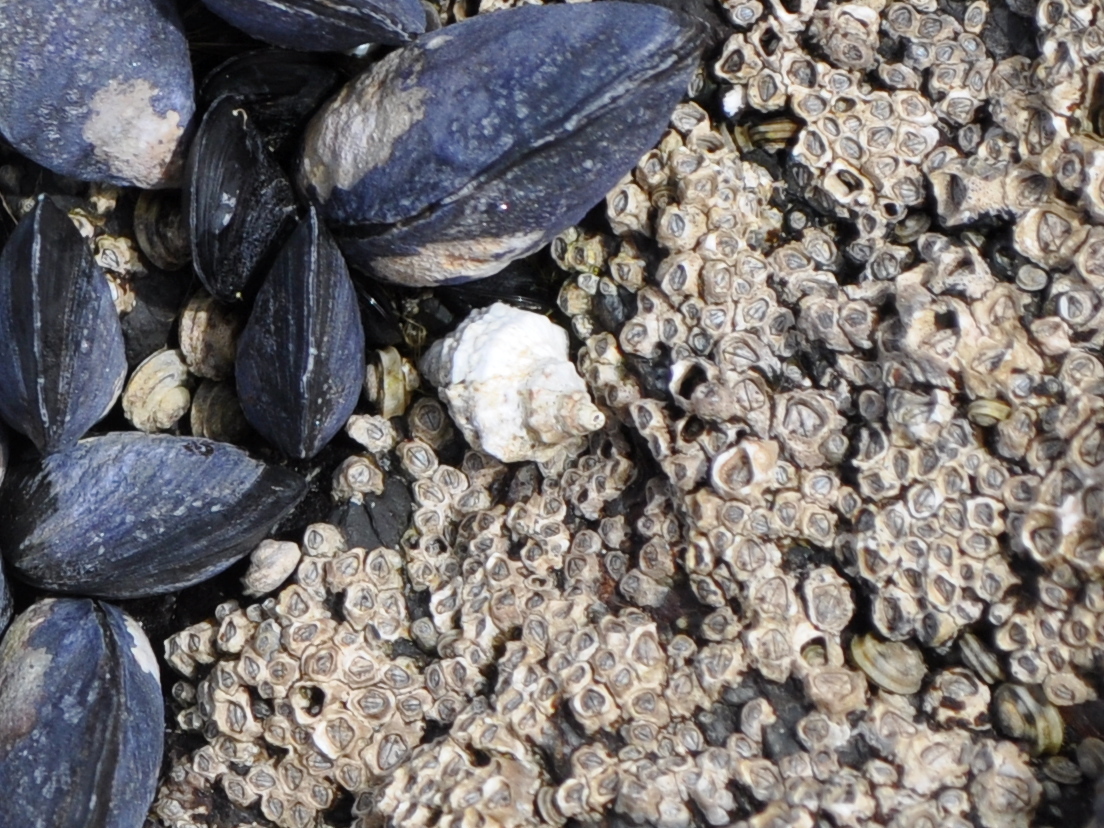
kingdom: Animalia
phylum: Mollusca
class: Gastropoda
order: Neogastropoda
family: Muricidae
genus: Haustrum
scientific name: Haustrum scobina
